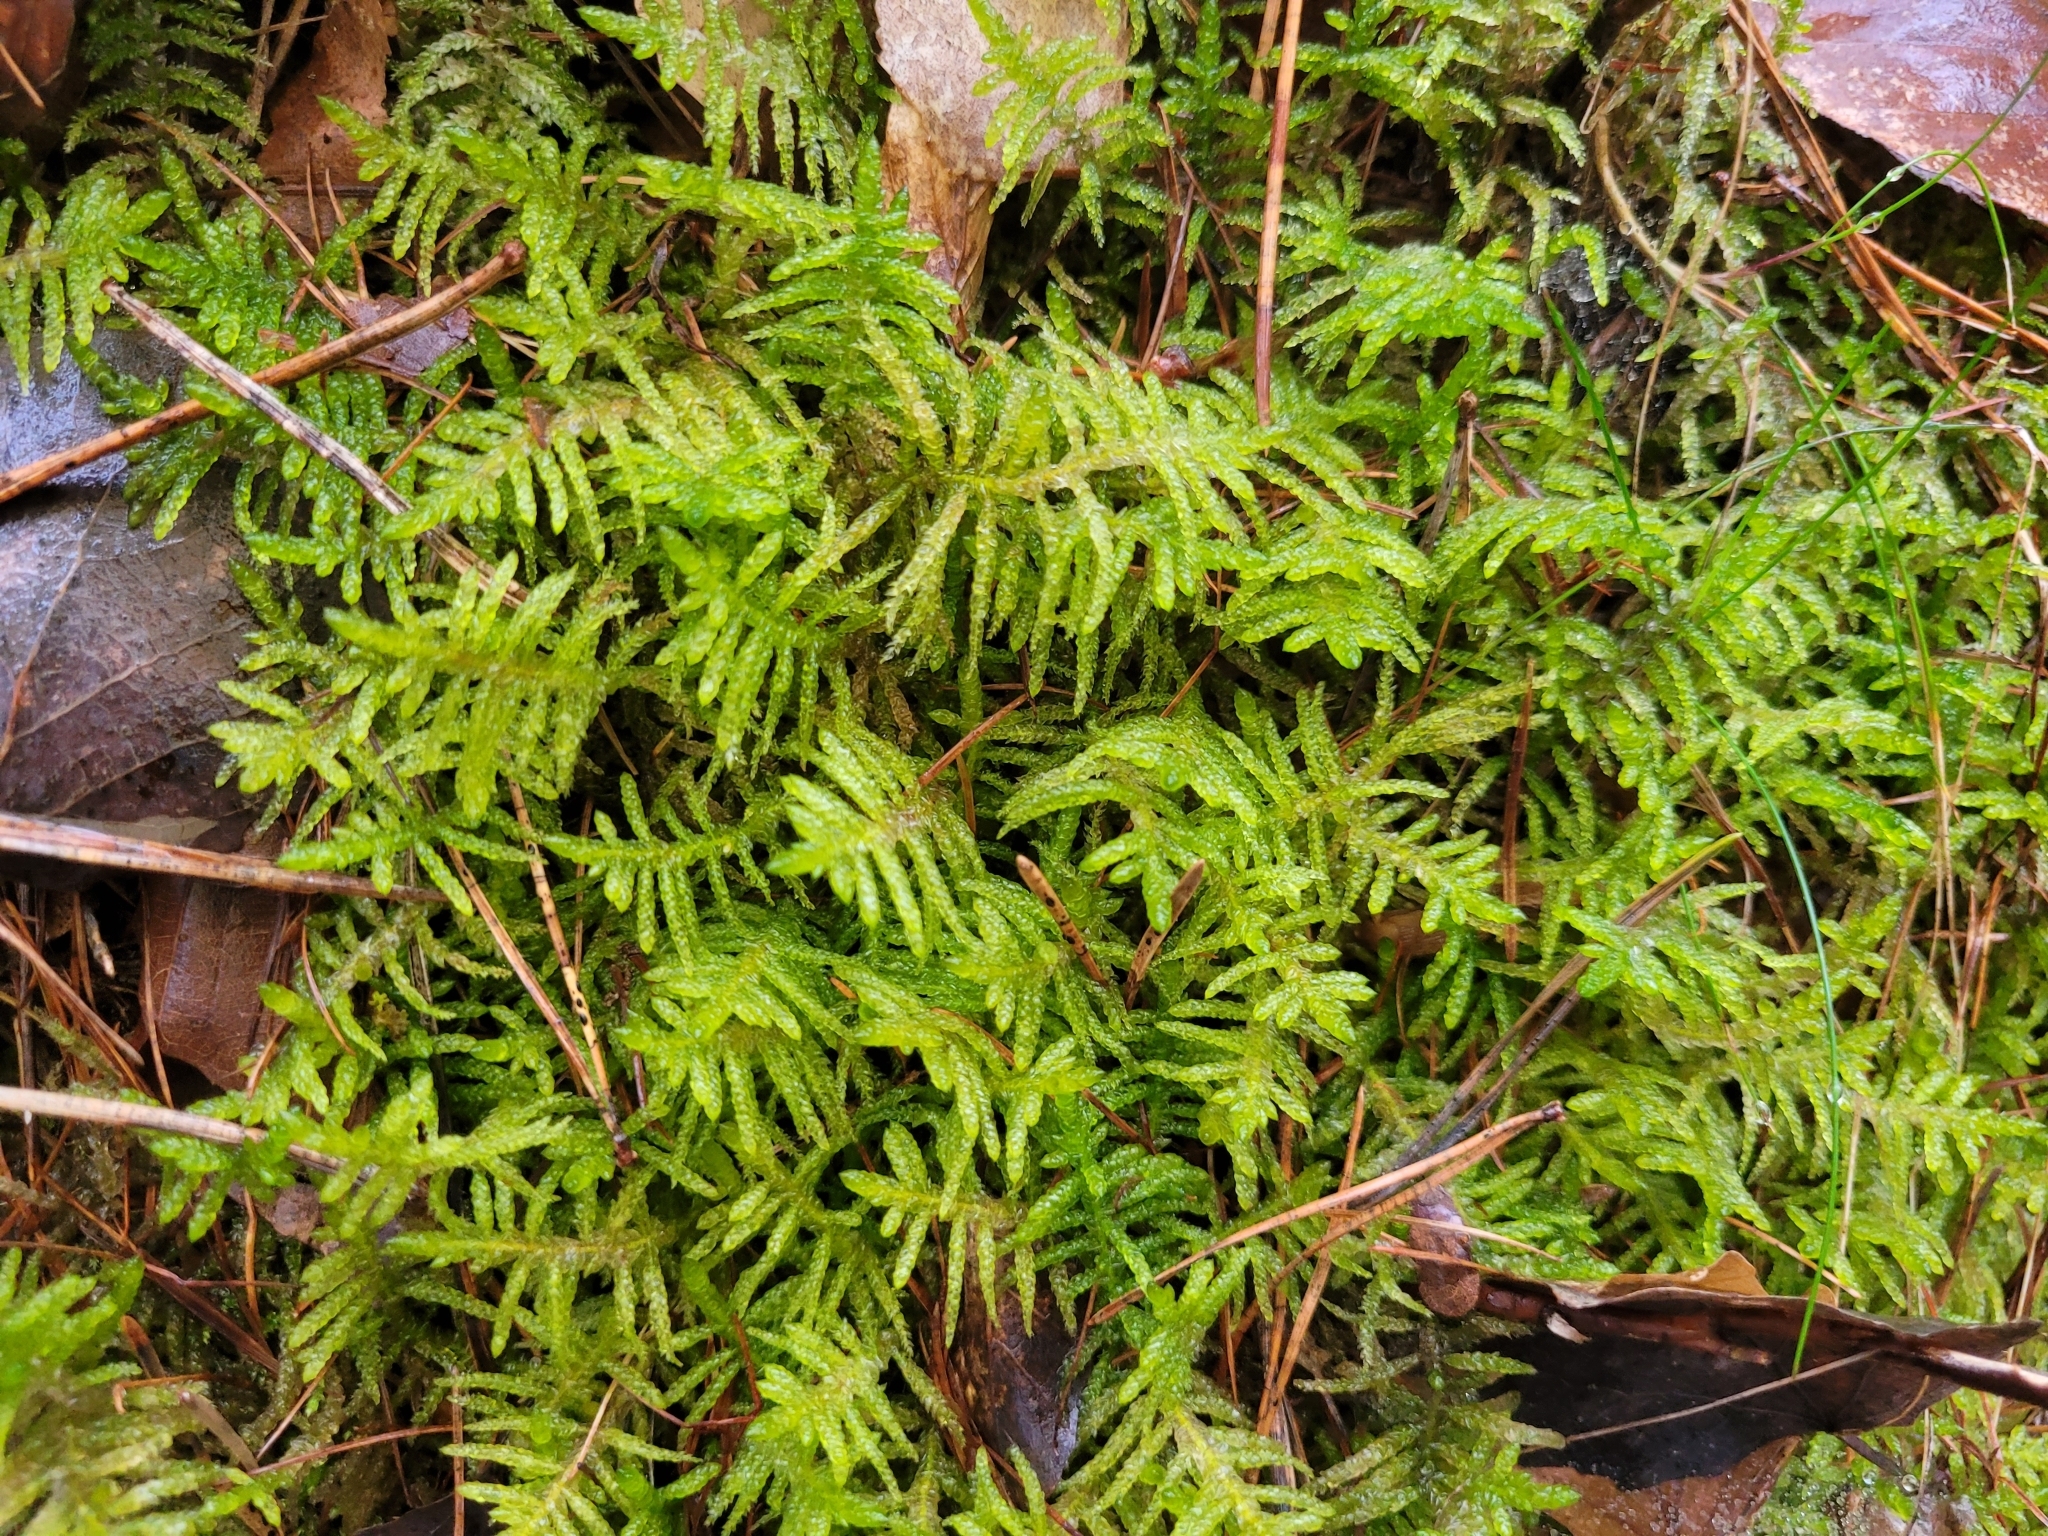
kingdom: Plantae
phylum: Bryophyta
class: Bryopsida
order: Hypnales
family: Brachytheciaceae
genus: Pseudoscleropodium
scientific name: Pseudoscleropodium purum
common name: Neat feather-moss
